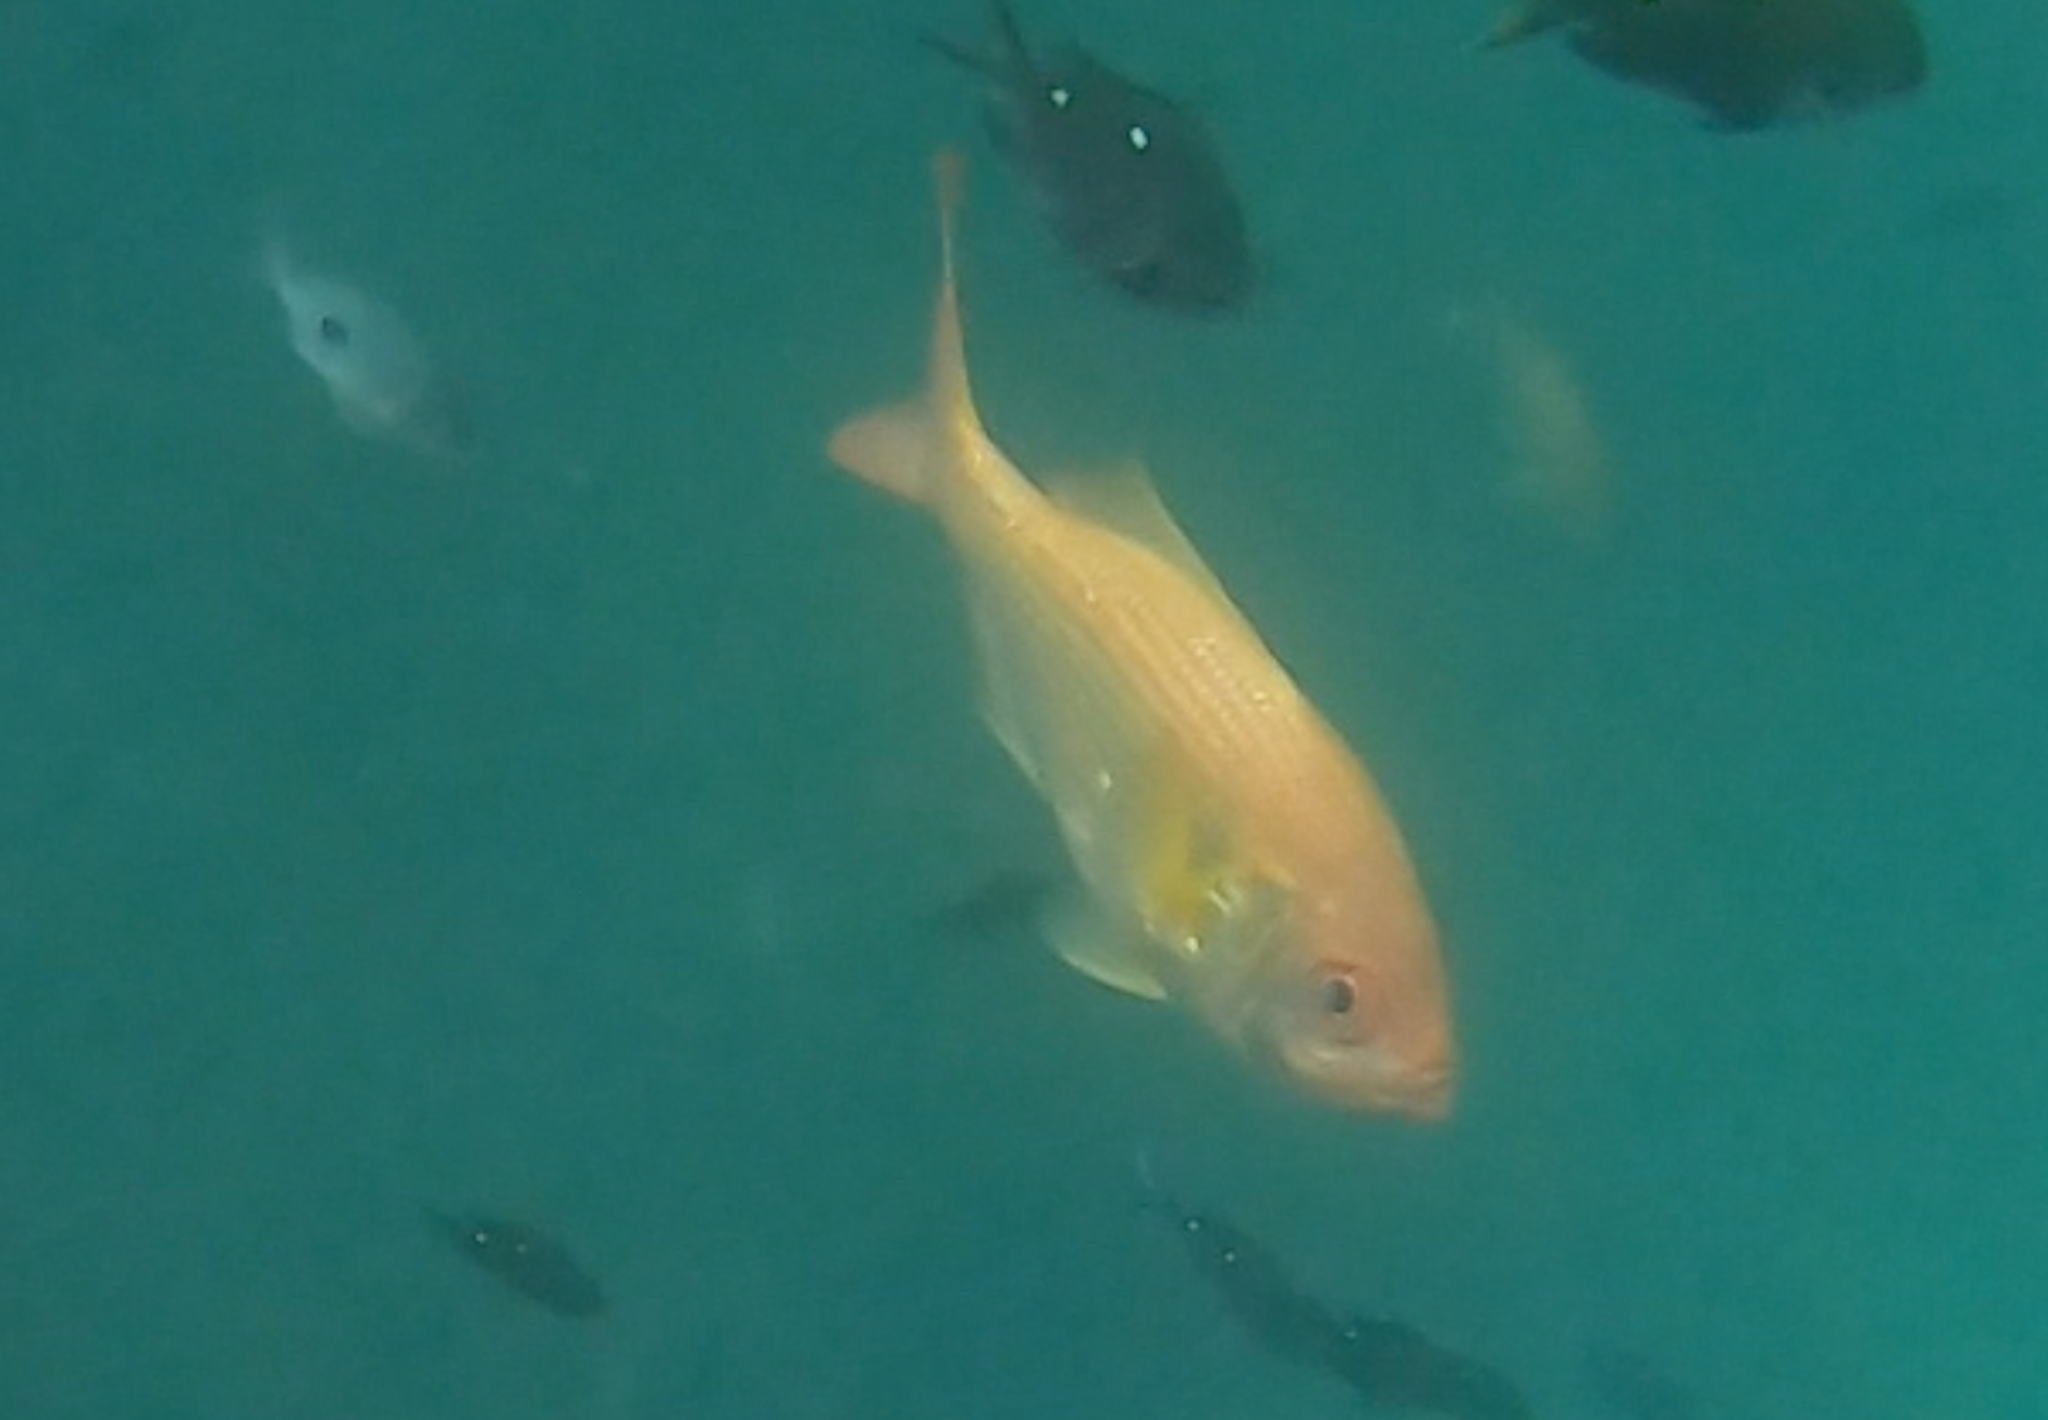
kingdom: Animalia
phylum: Chordata
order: Beryciformes
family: Berycidae
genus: Centroberyx
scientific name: Centroberyx affinis
